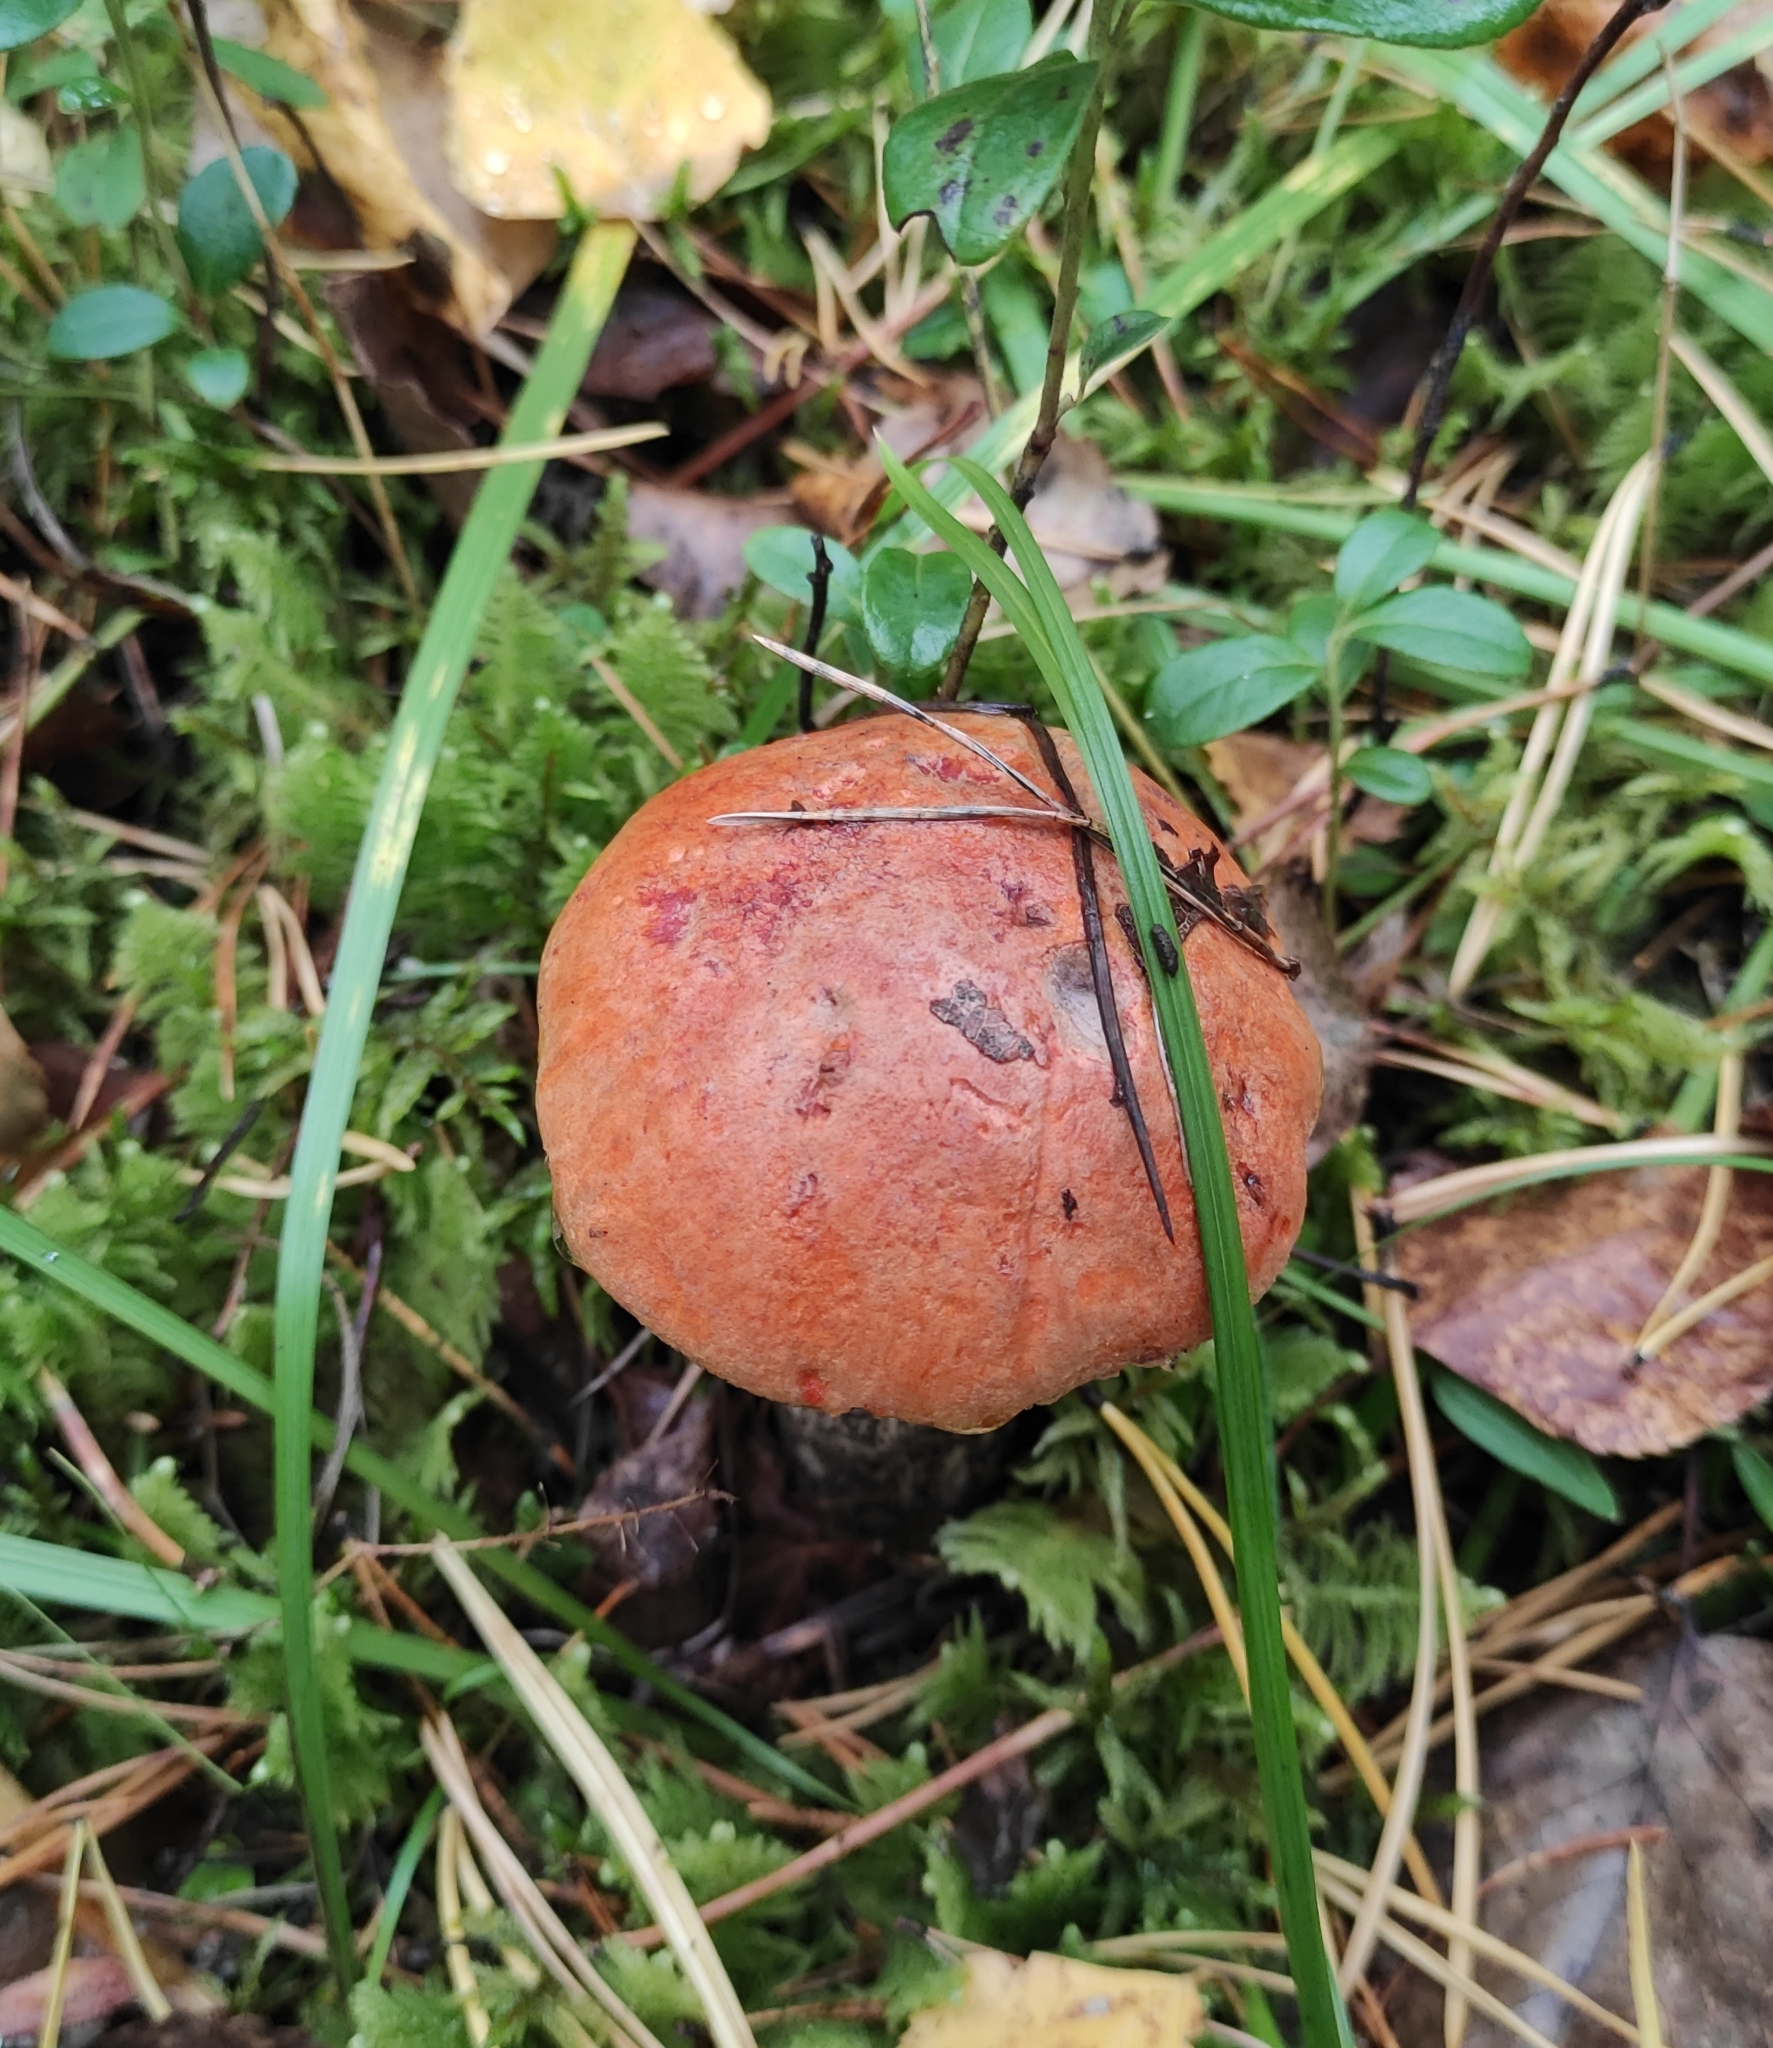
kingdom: Fungi
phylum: Basidiomycota
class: Agaricomycetes
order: Boletales
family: Boletaceae
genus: Leccinum
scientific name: Leccinum versipelle
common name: Orange birch bolete
